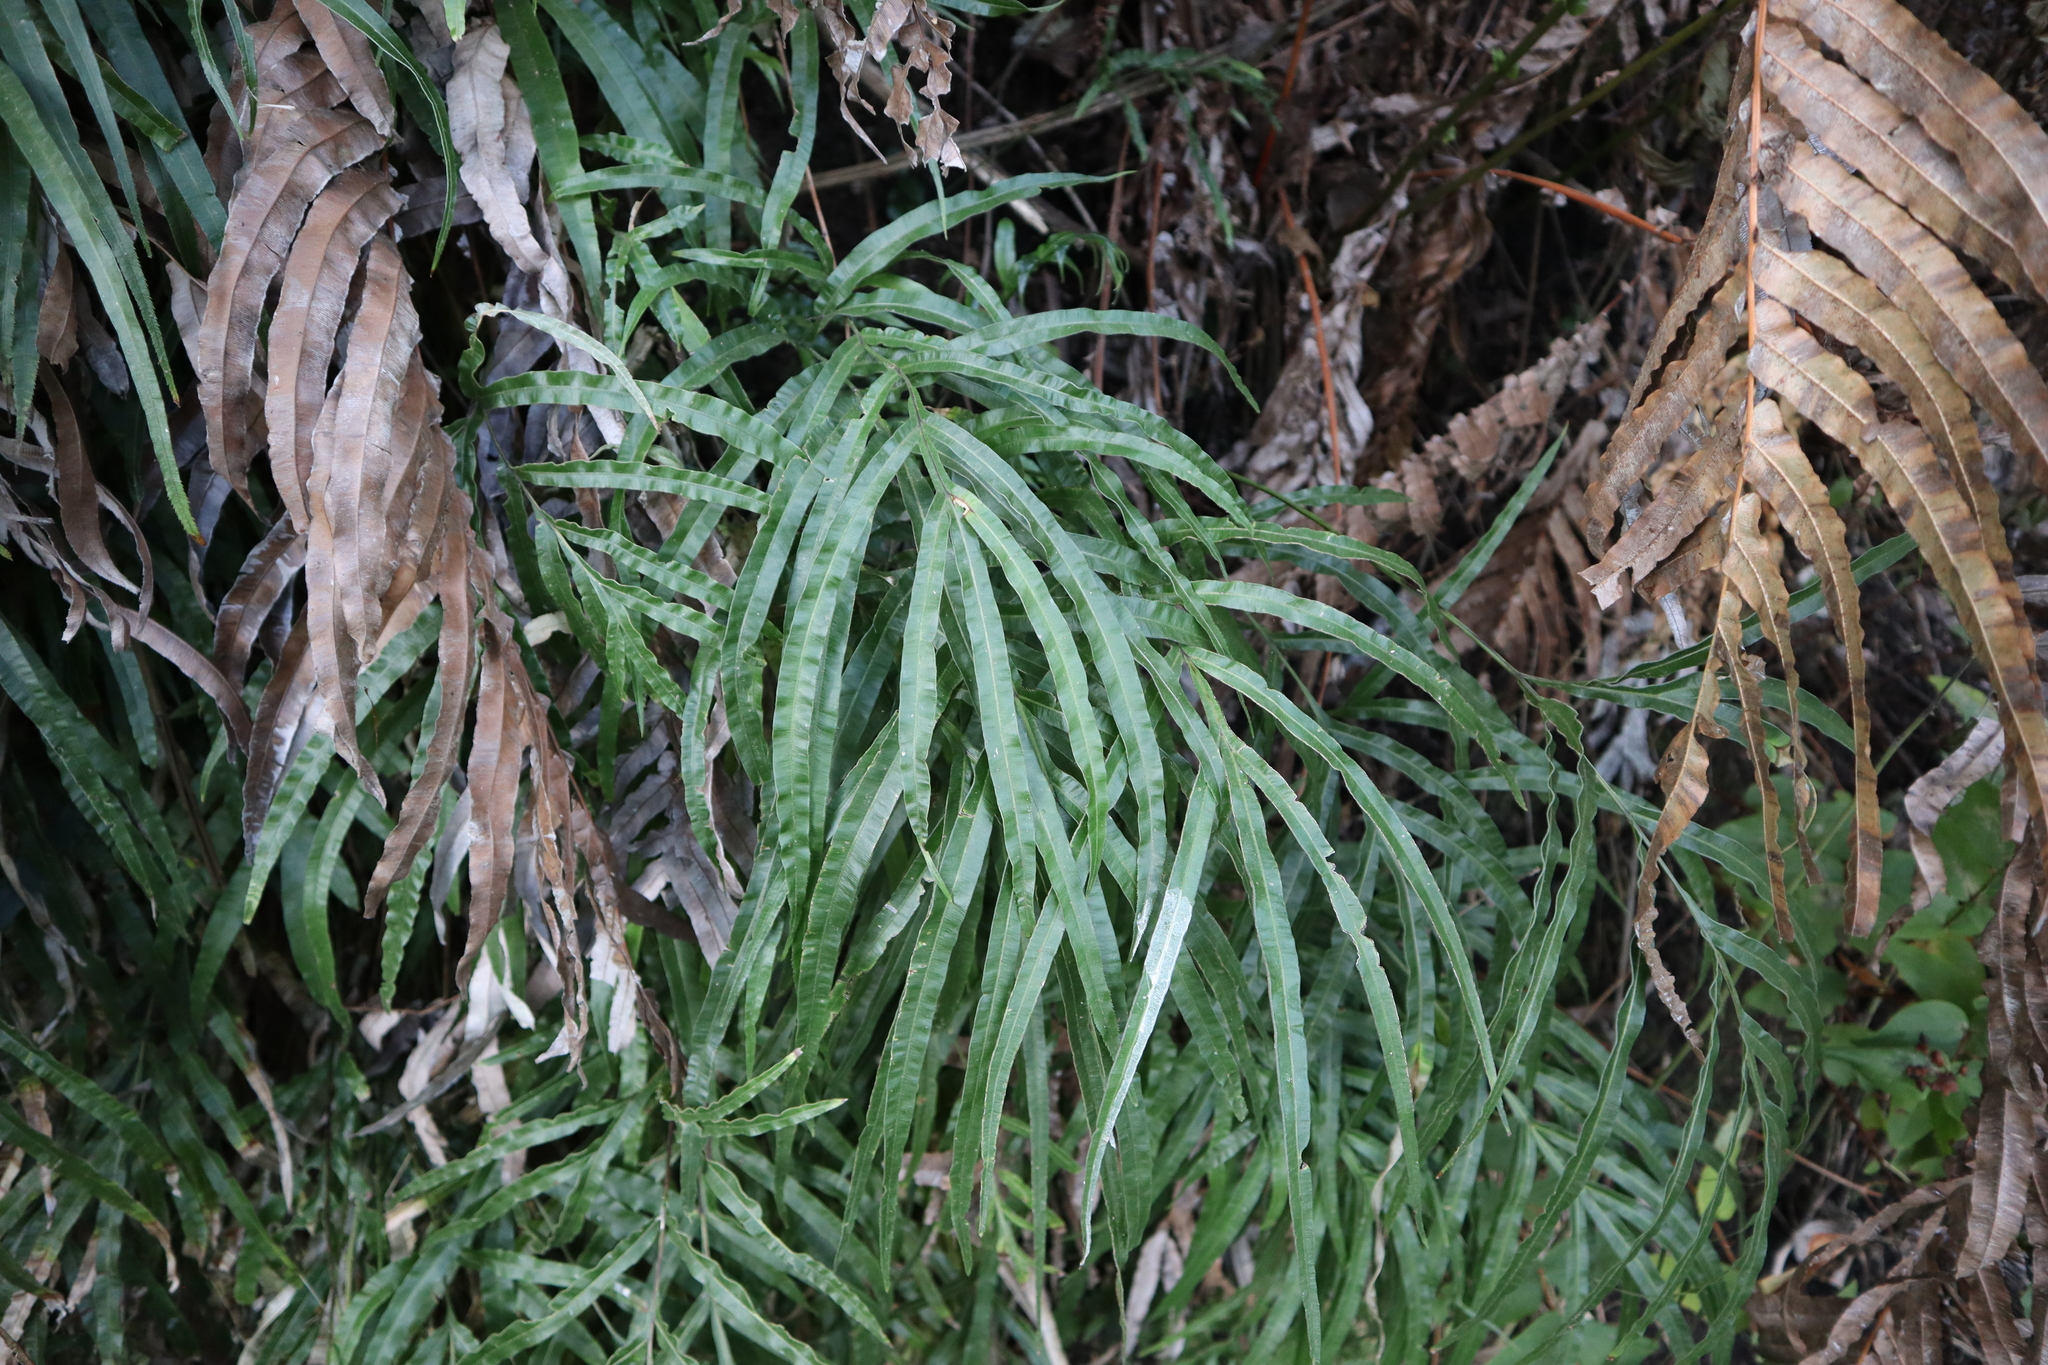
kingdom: Plantae
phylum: Tracheophyta
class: Polypodiopsida
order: Polypodiales
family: Pteridaceae
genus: Pteris
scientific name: Pteris cretica
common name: Ribbon fern
